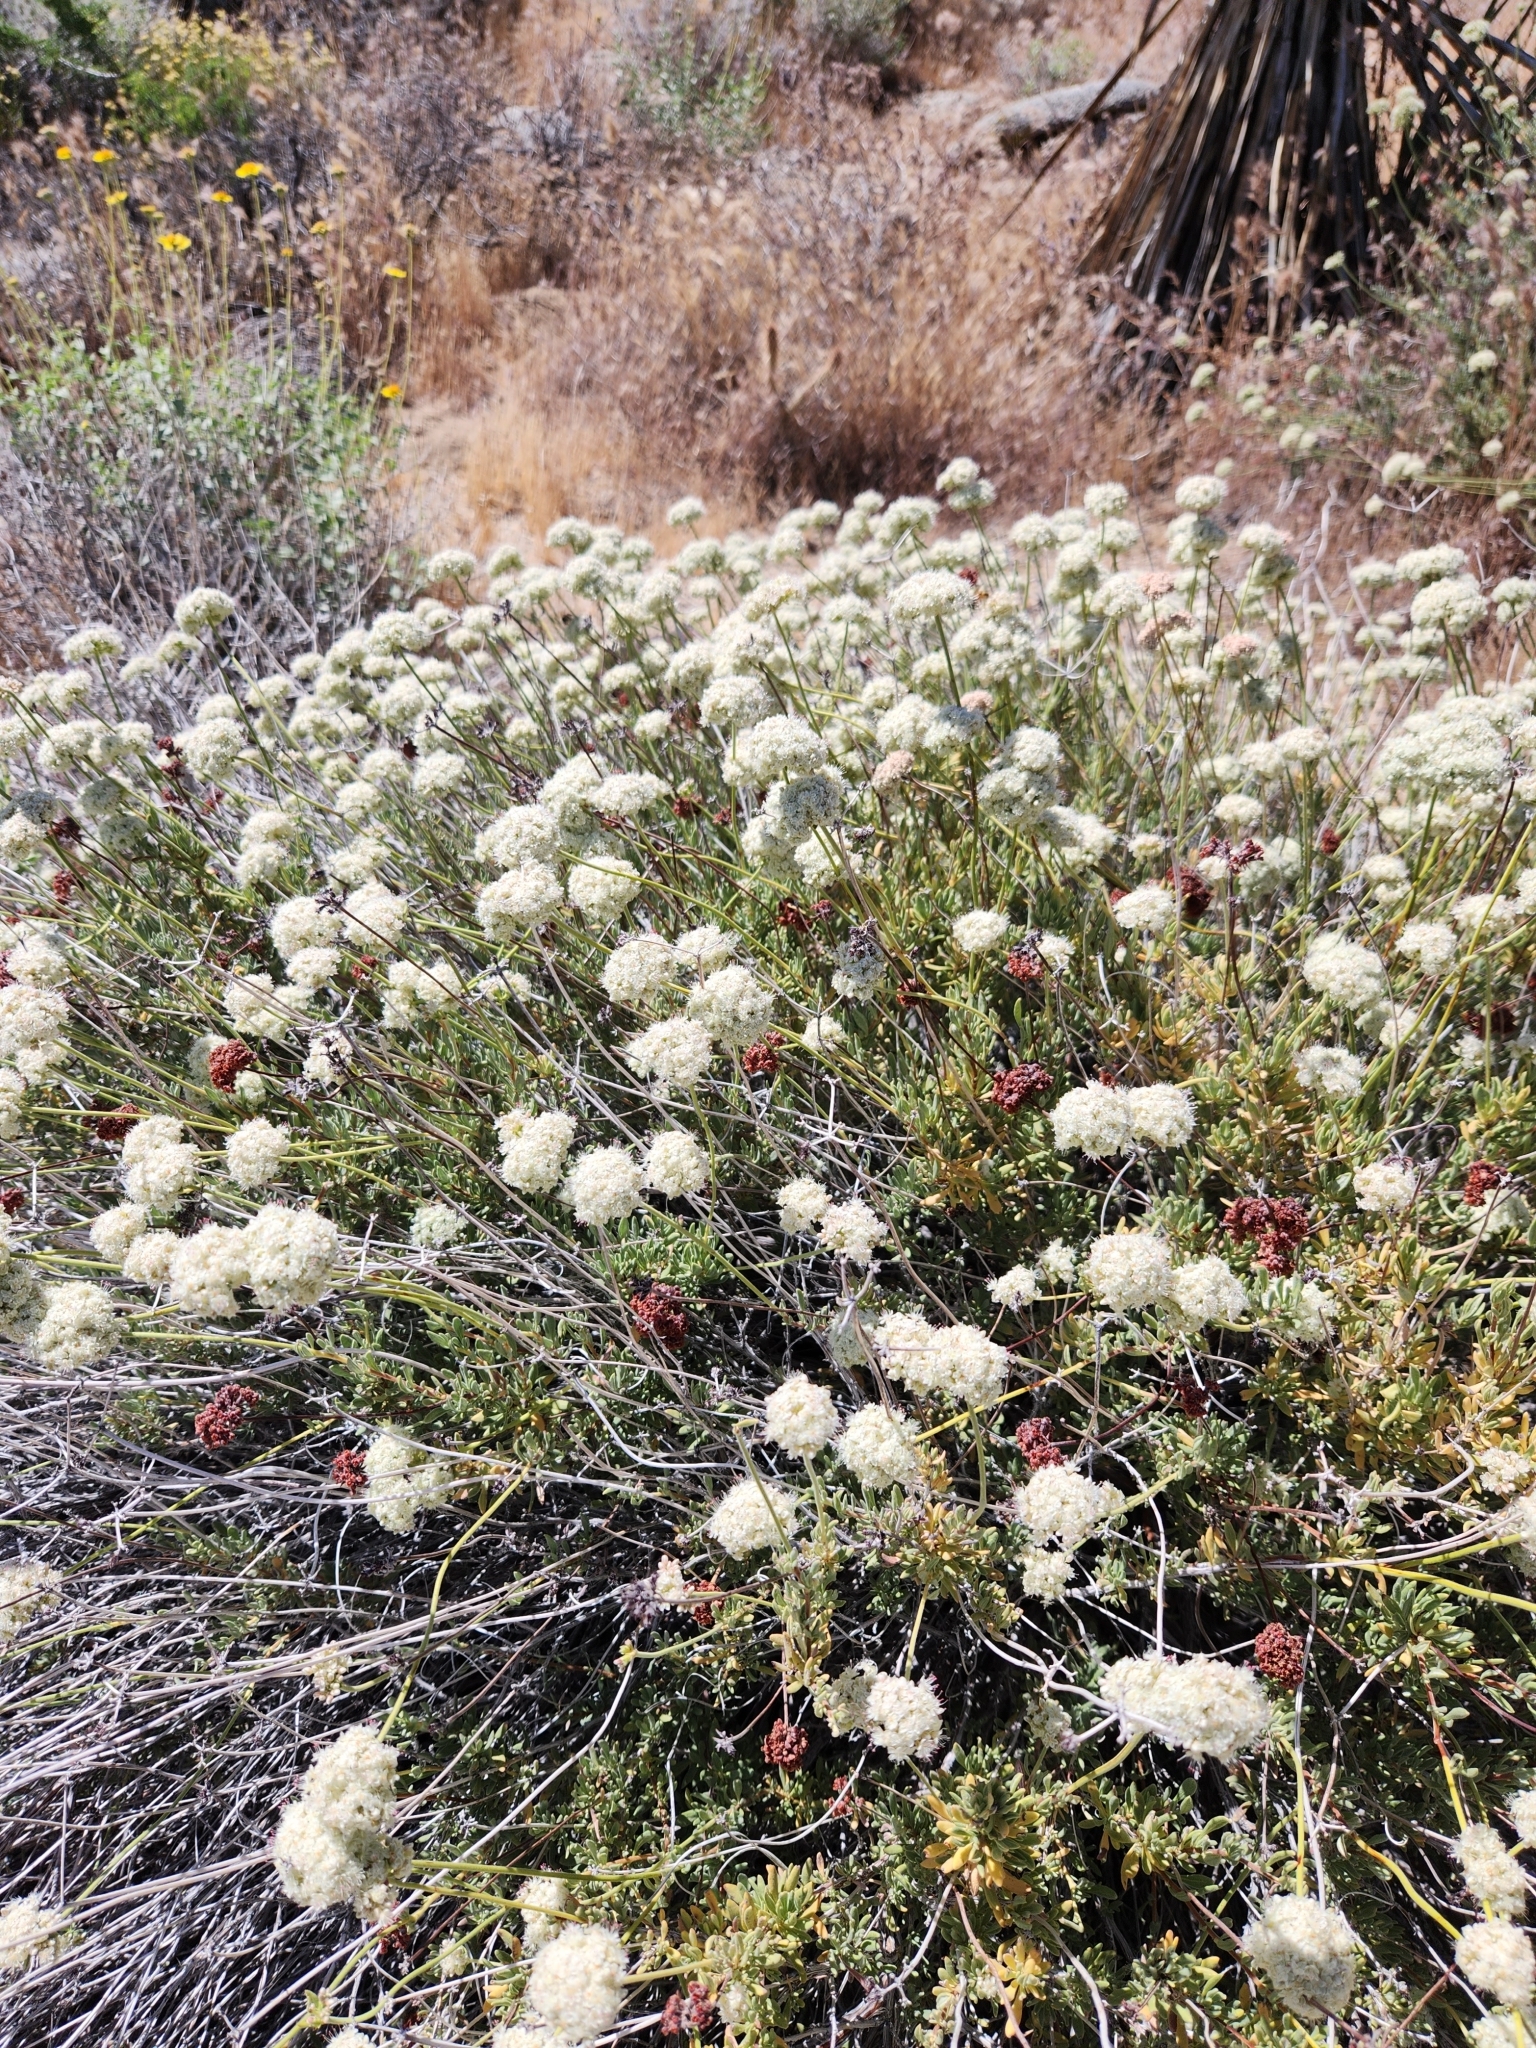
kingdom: Plantae
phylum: Tracheophyta
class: Magnoliopsida
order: Caryophyllales
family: Polygonaceae
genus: Eriogonum
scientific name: Eriogonum fasciculatum
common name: California wild buckwheat
